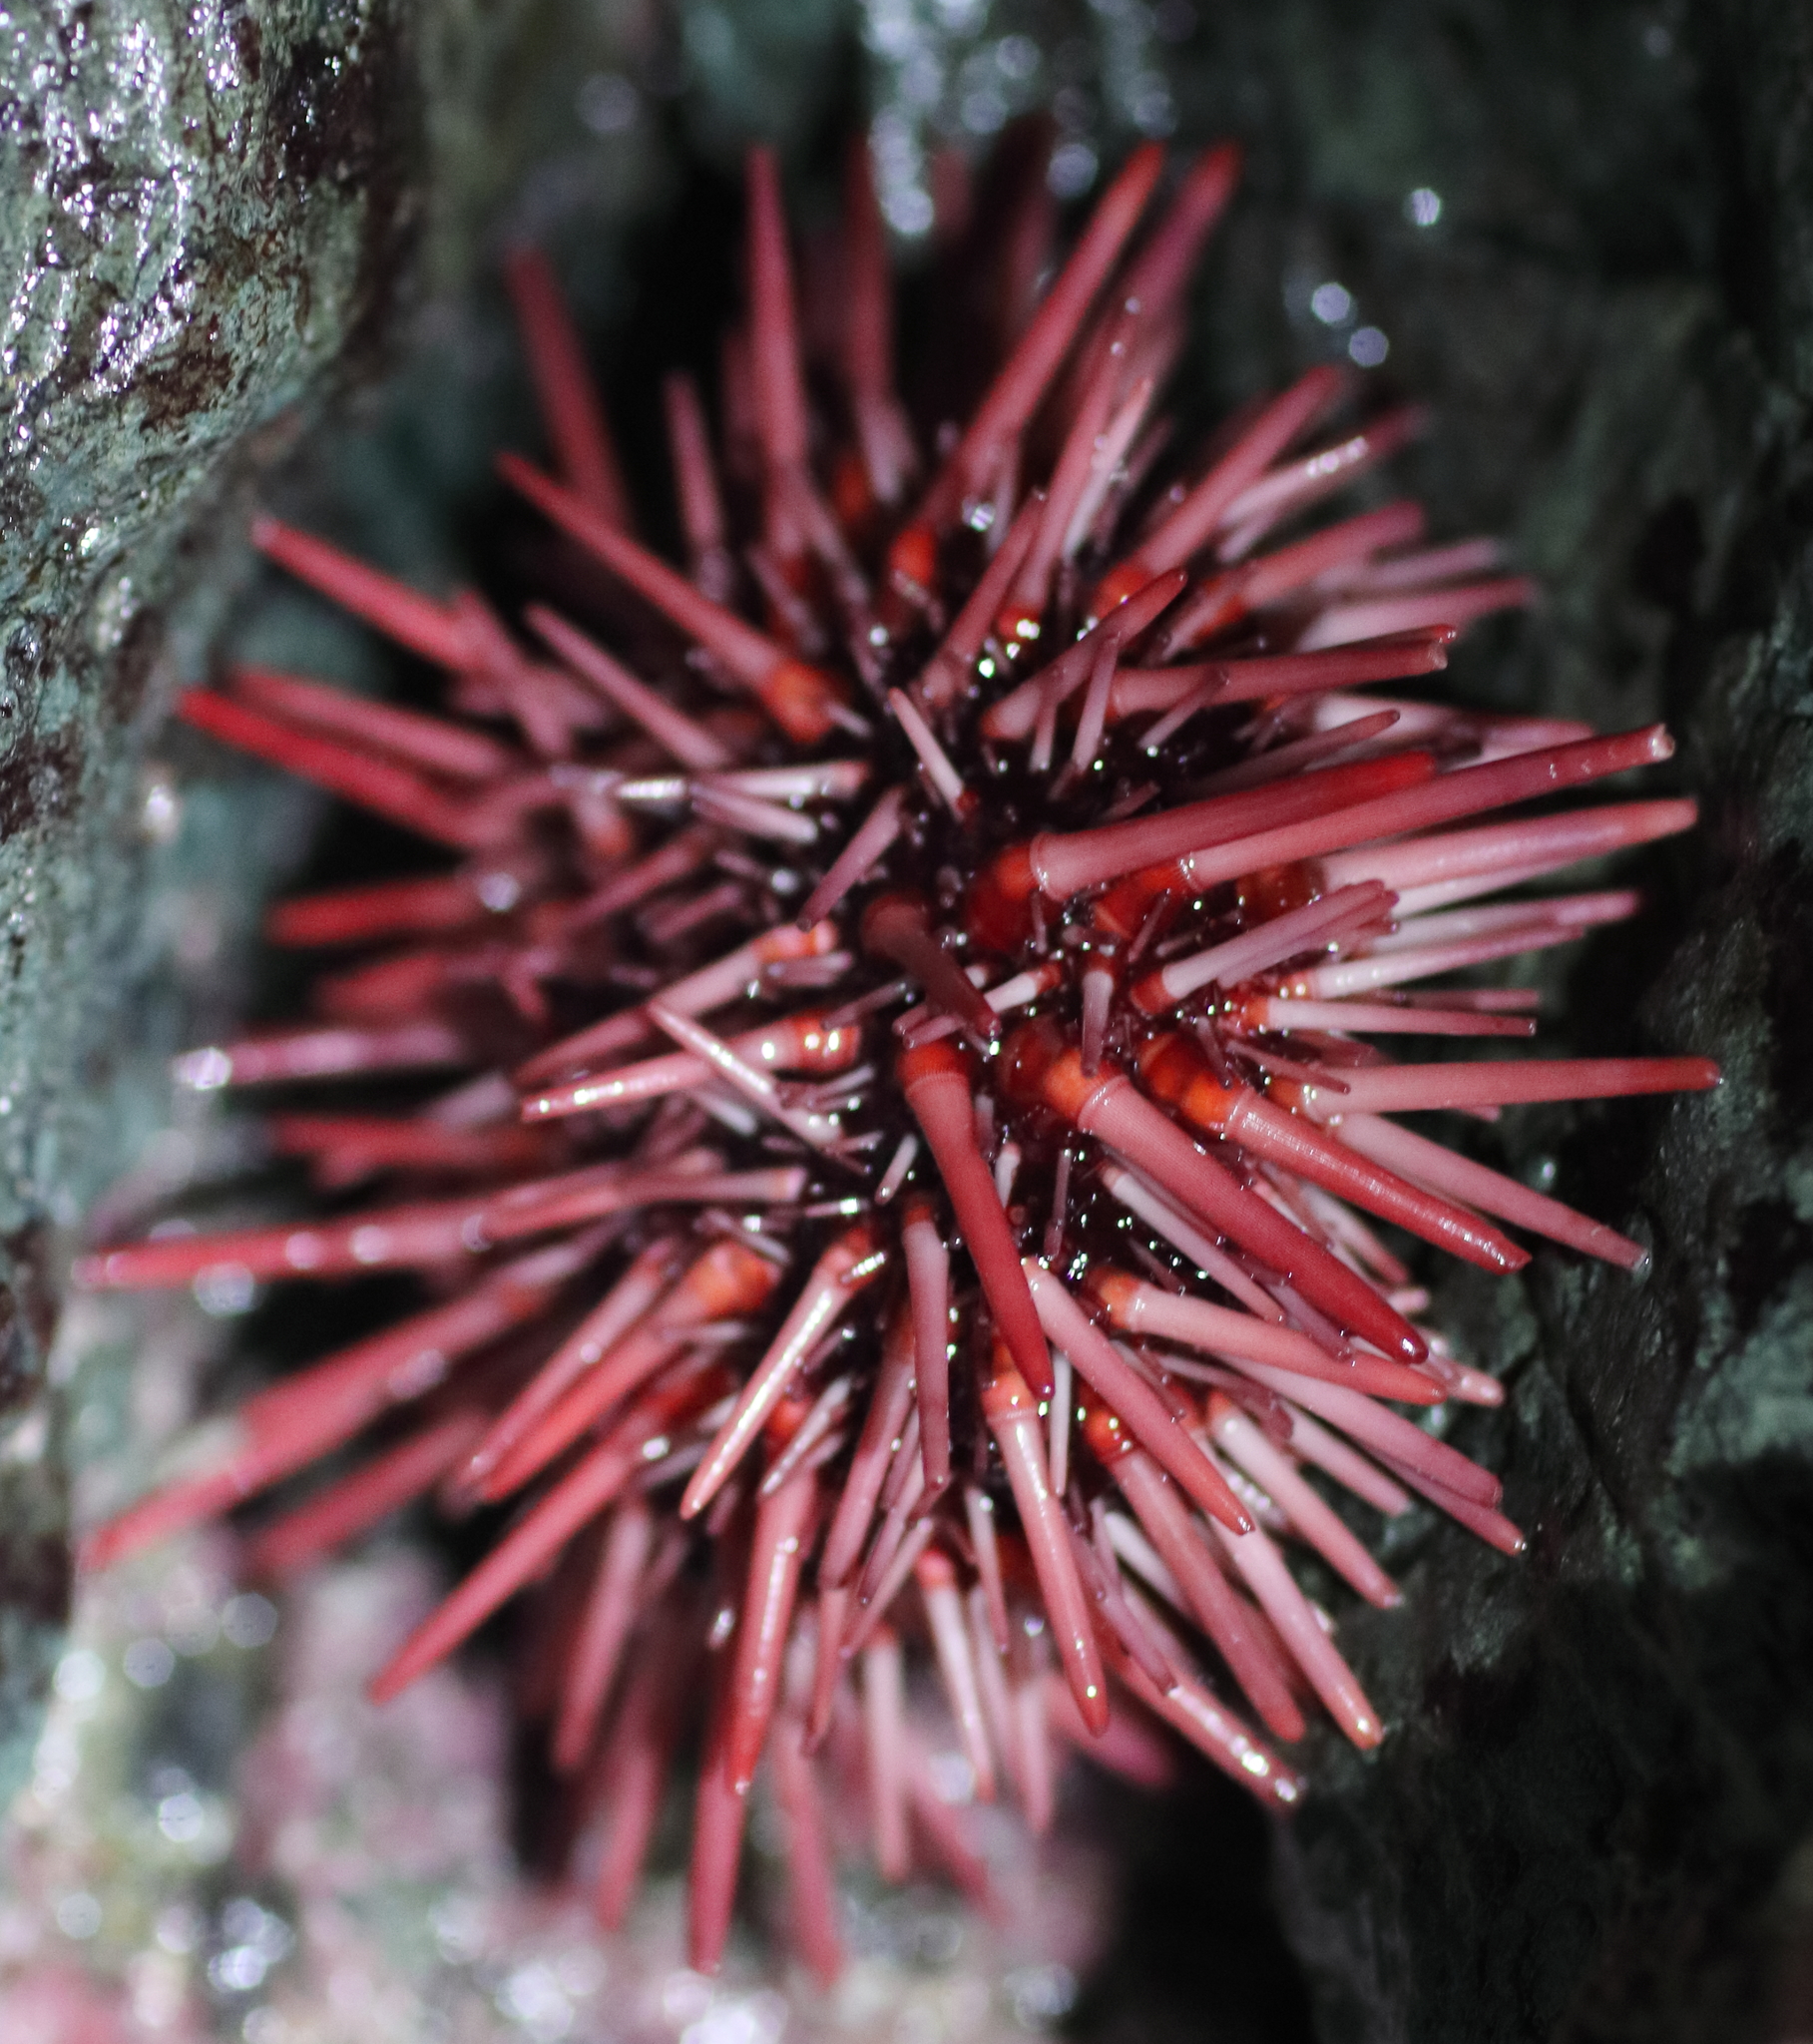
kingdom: Animalia
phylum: Echinodermata
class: Echinoidea
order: Camarodonta
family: Strongylocentrotidae
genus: Mesocentrotus
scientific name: Mesocentrotus franciscanus
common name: Red sea urchin
